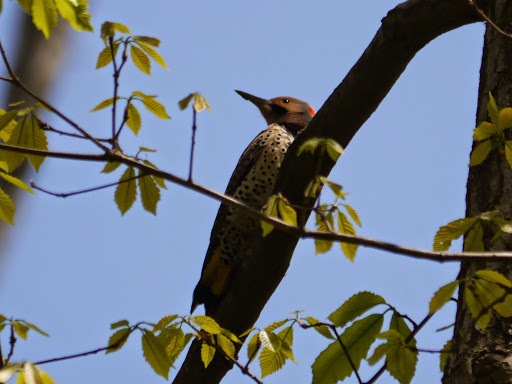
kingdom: Animalia
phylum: Chordata
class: Aves
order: Piciformes
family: Picidae
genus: Colaptes
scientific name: Colaptes auratus
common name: Northern flicker
